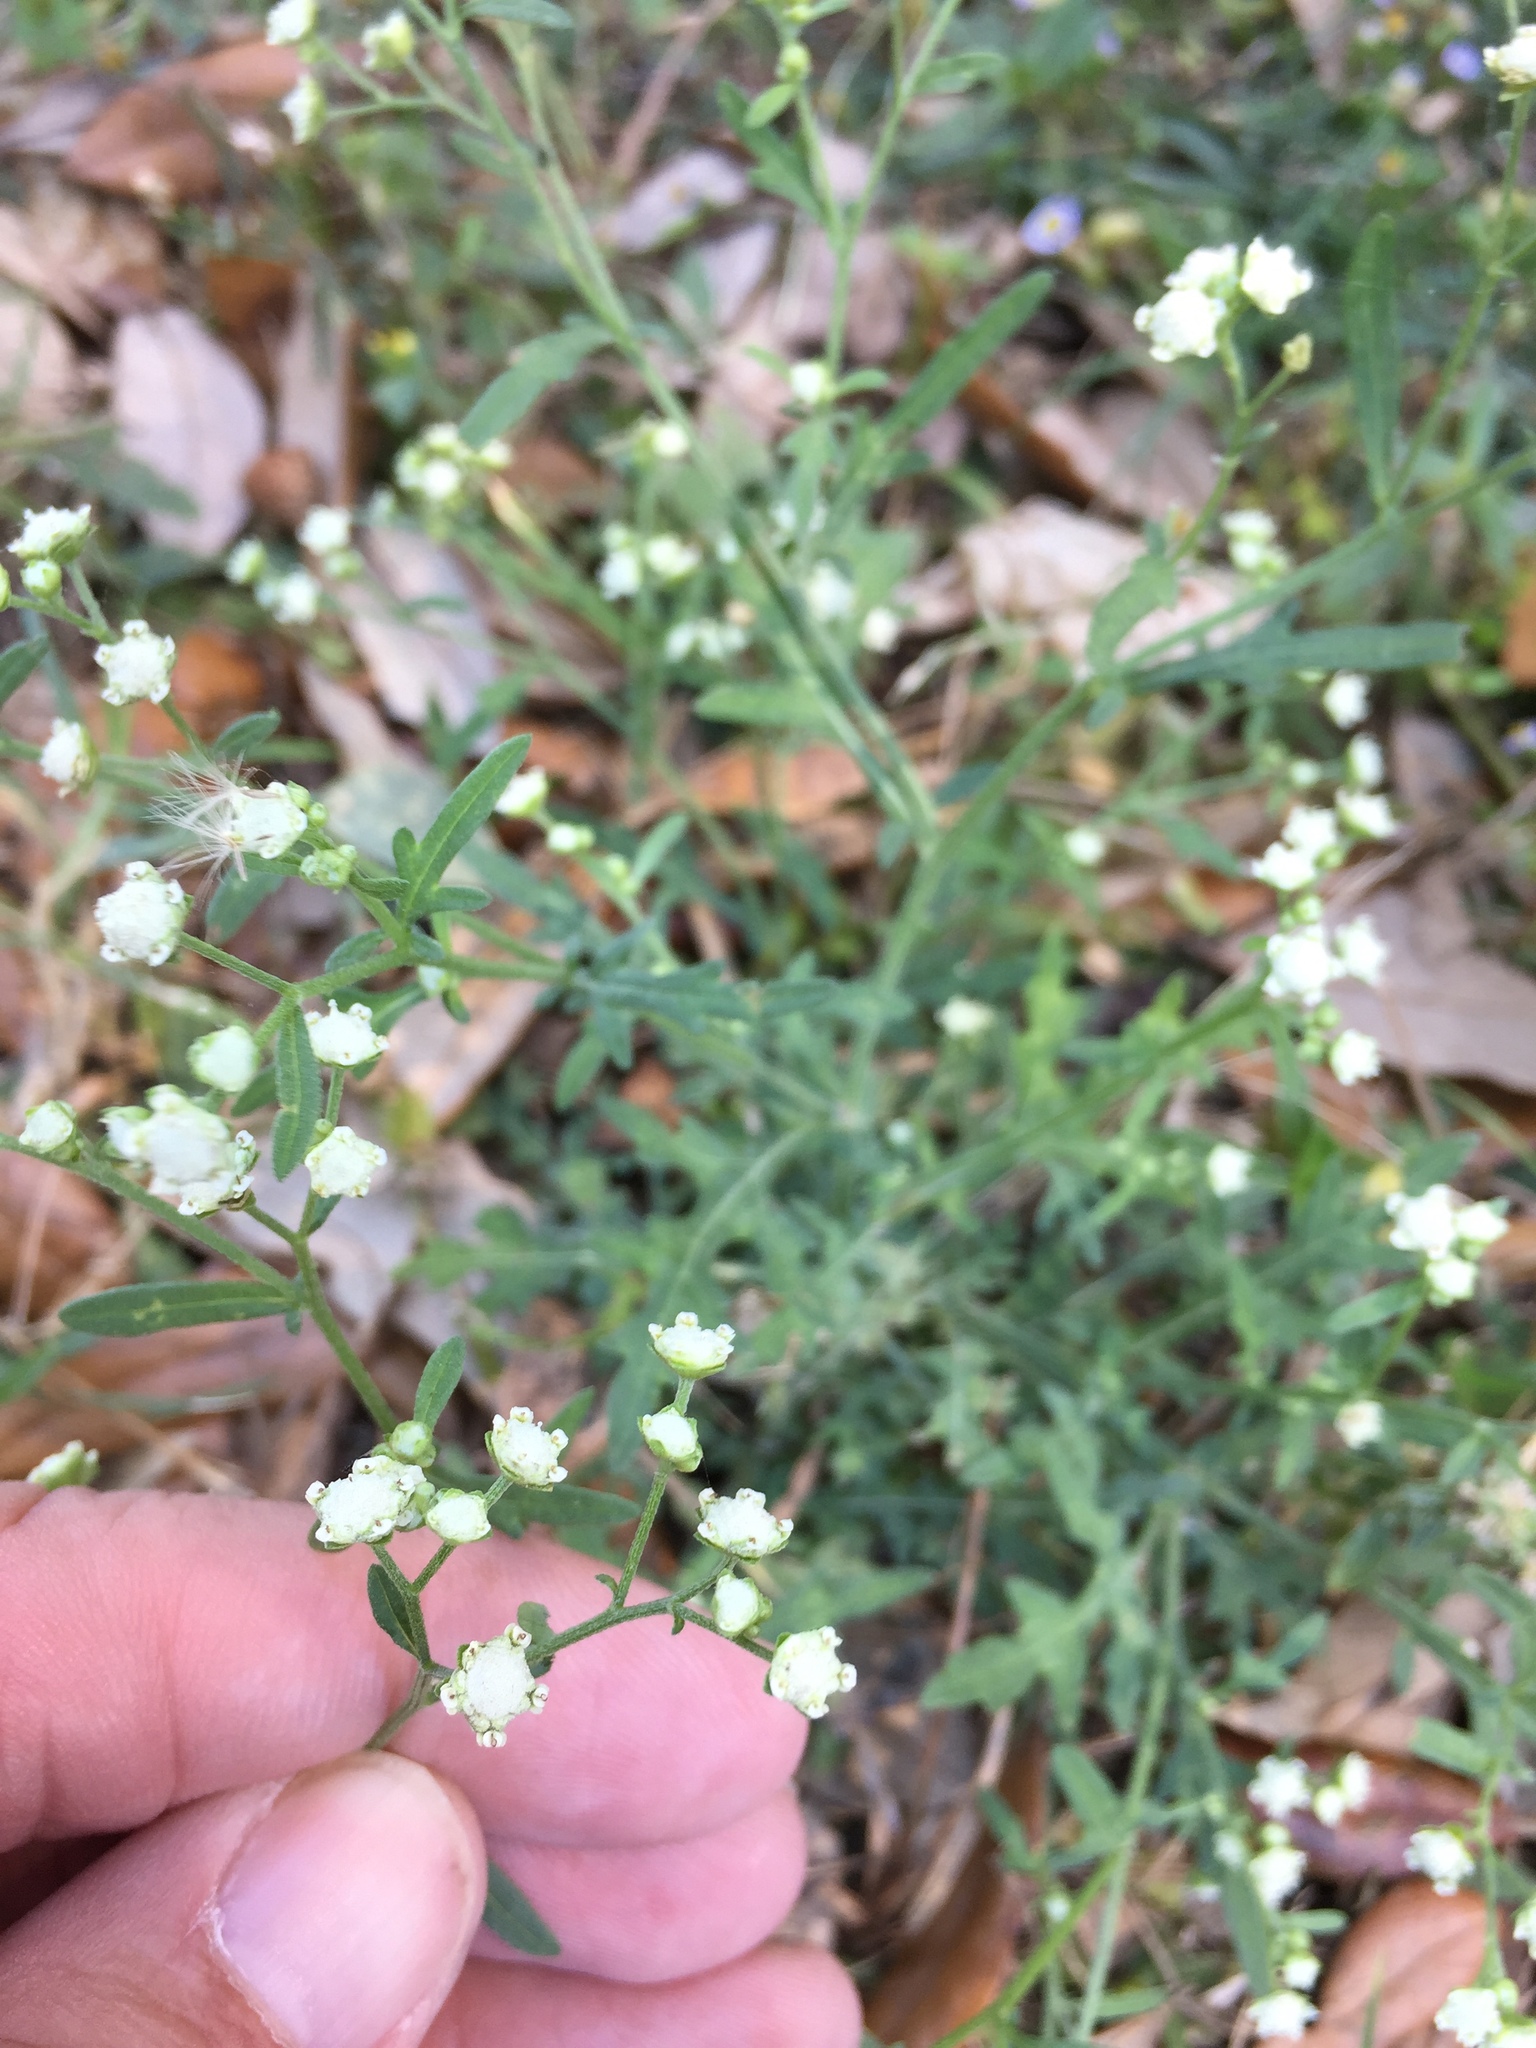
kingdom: Plantae
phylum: Tracheophyta
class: Magnoliopsida
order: Asterales
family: Asteraceae
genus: Parthenium
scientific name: Parthenium hysterophorus
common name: Santa maria feverfew
